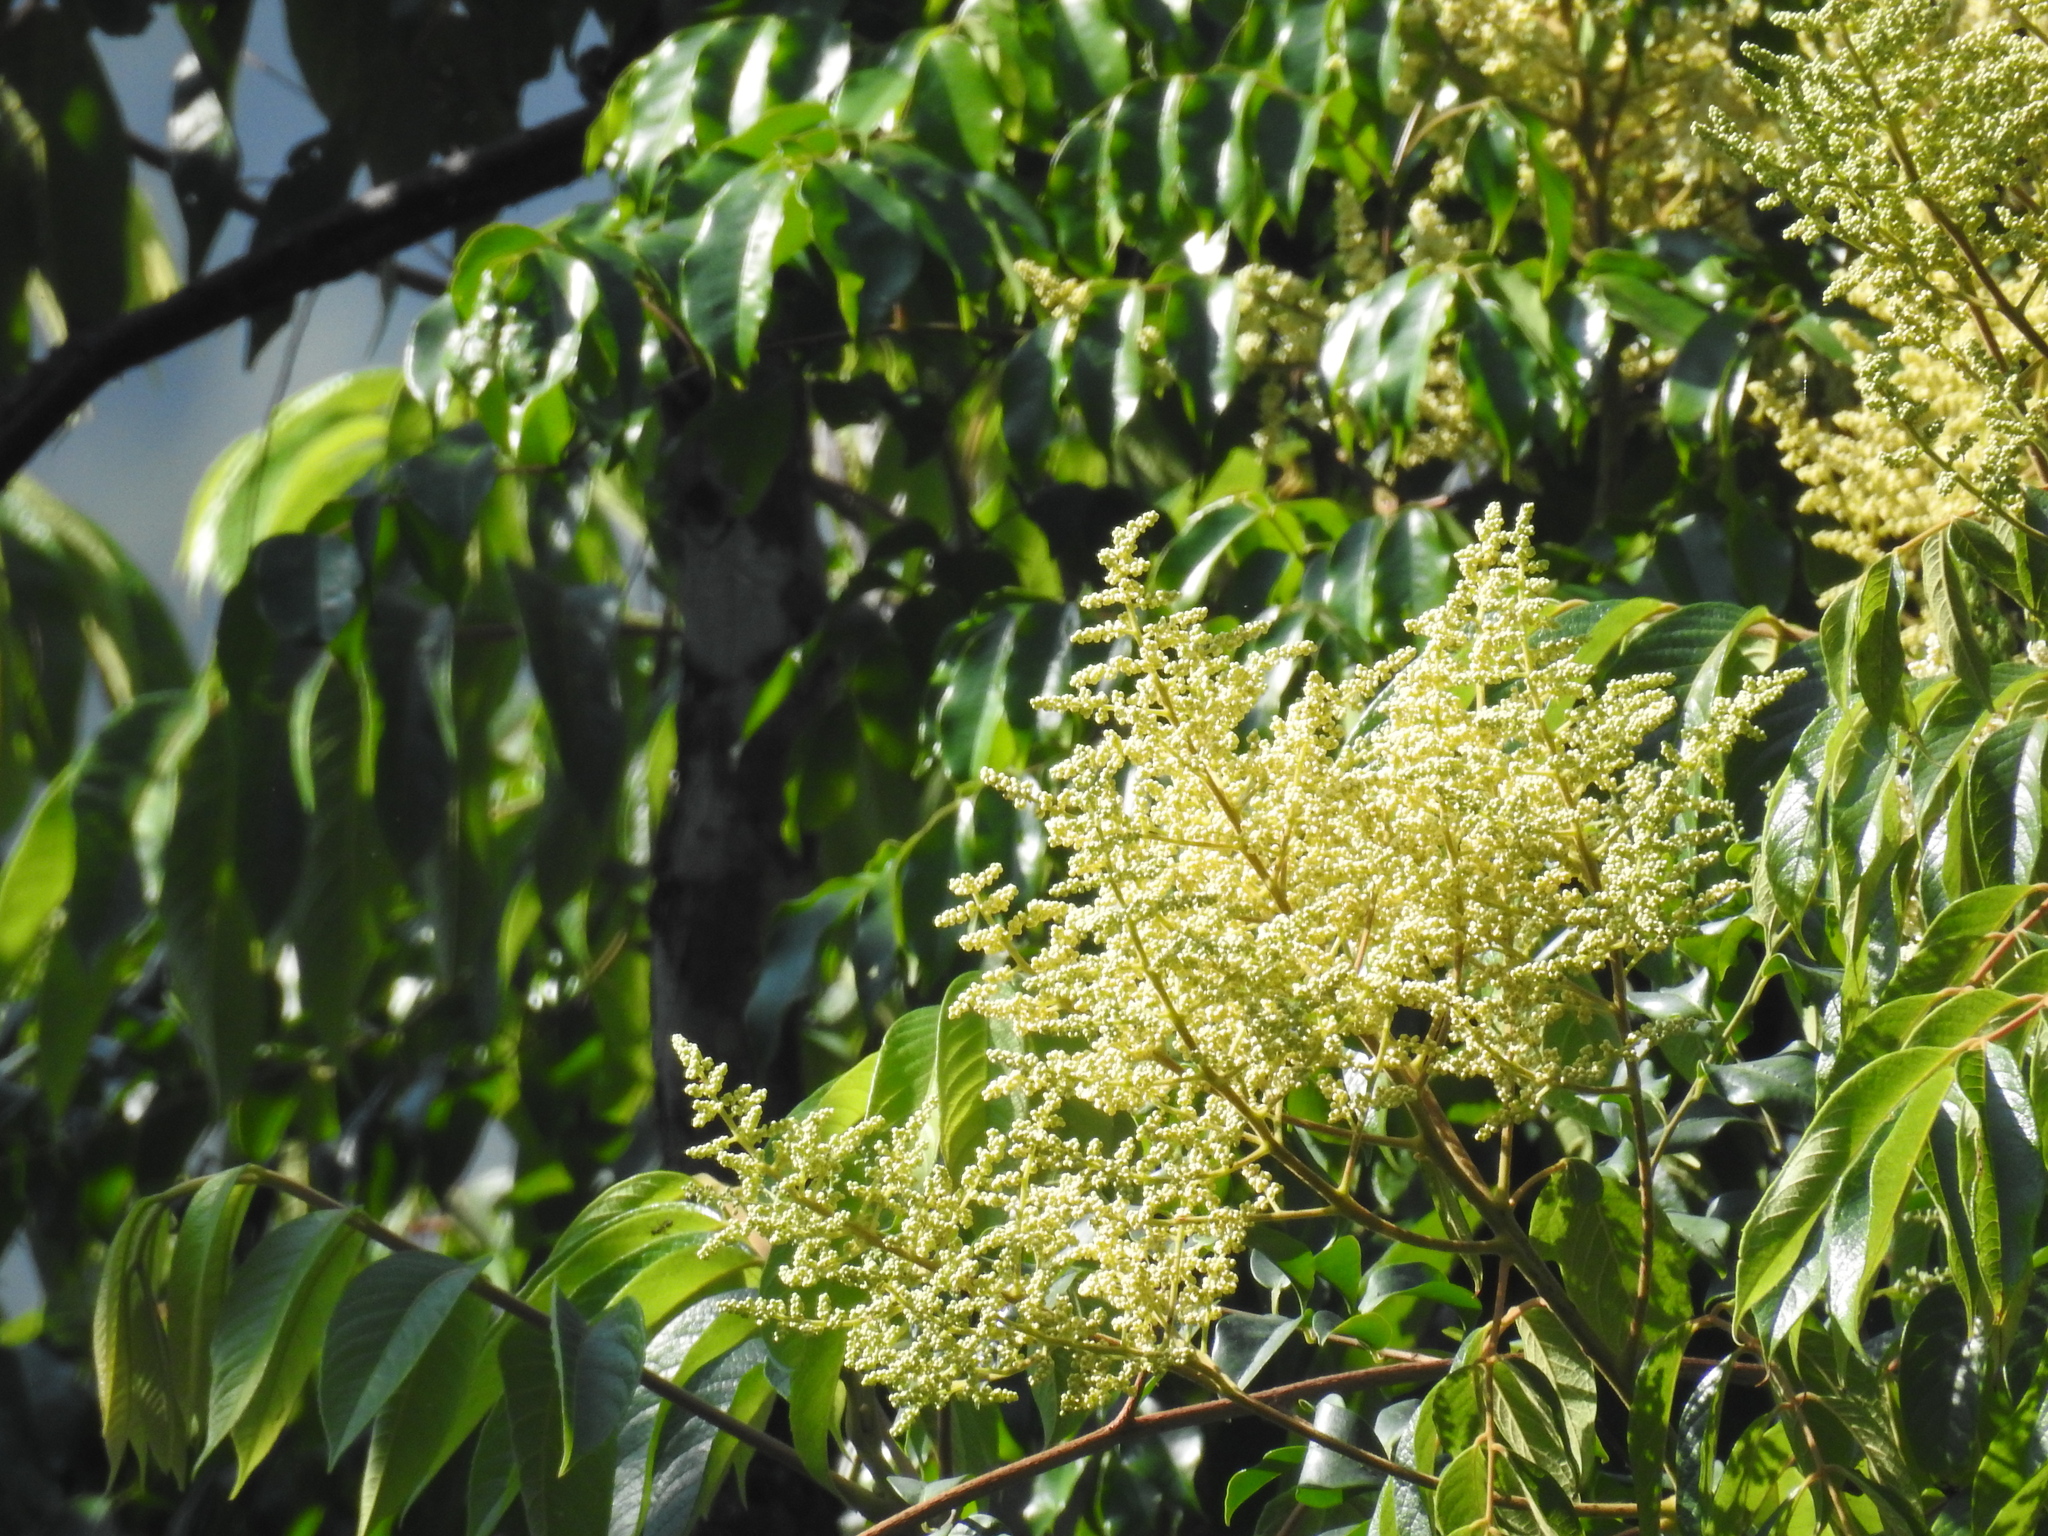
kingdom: Plantae
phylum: Tracheophyta
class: Magnoliopsida
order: Proteales
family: Sabiaceae
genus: Meliosma
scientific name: Meliosma pinnata
